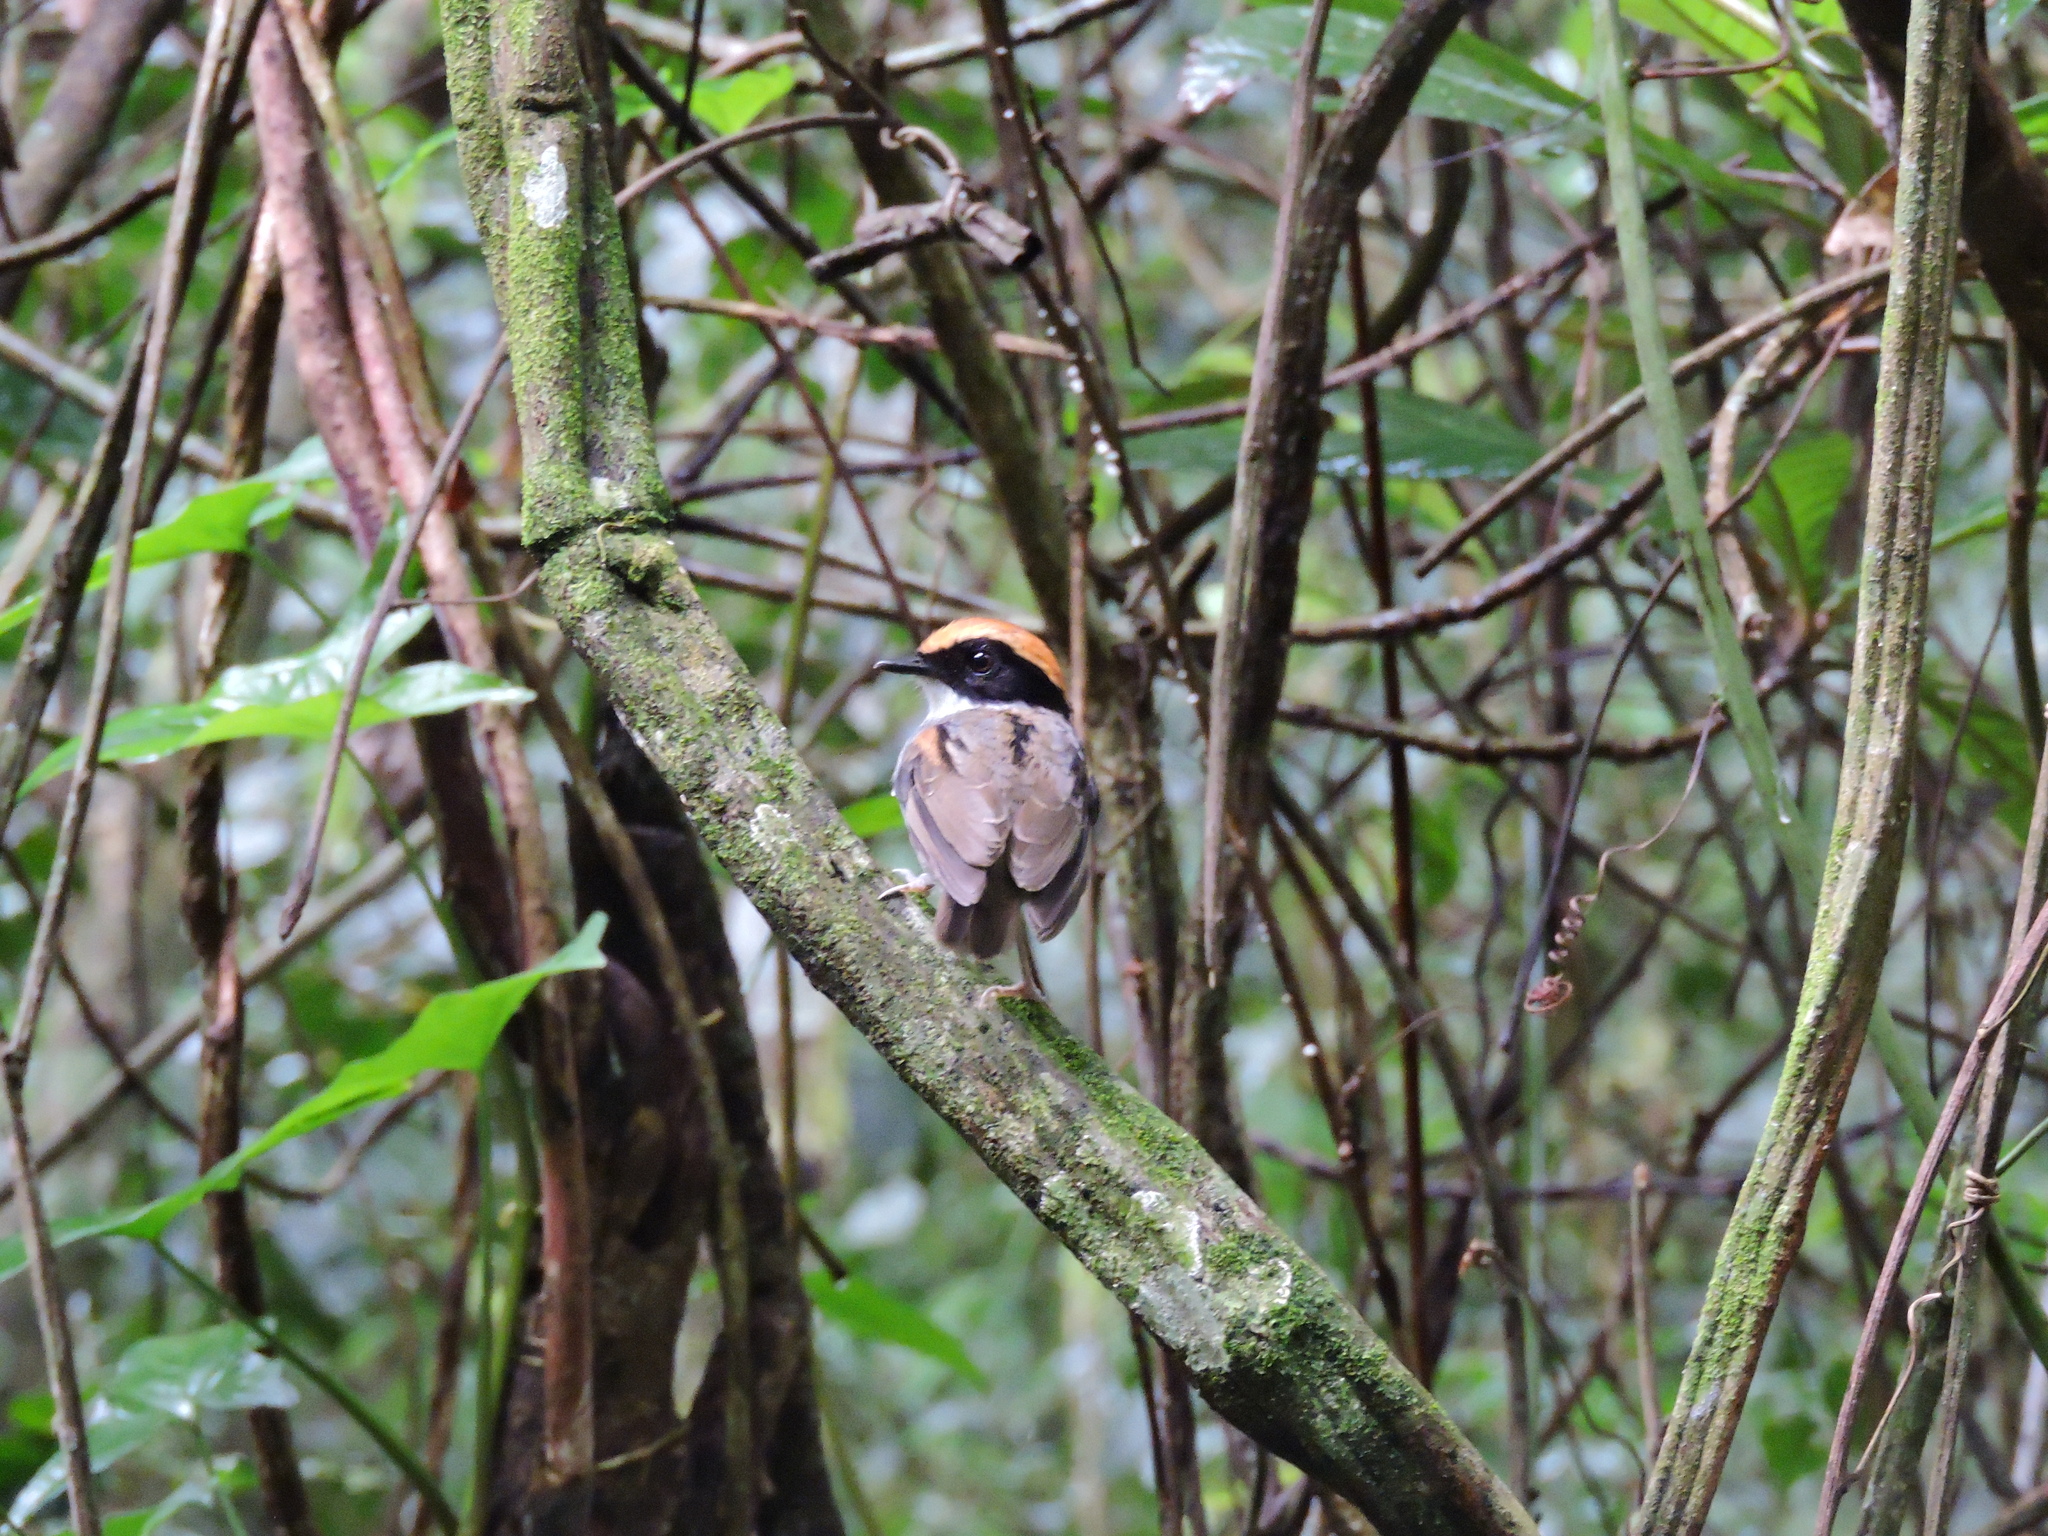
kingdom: Animalia
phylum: Chordata
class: Aves
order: Passeriformes
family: Conopophagidae
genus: Conopophaga
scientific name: Conopophaga melanops
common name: Black-cheeked gnateater
